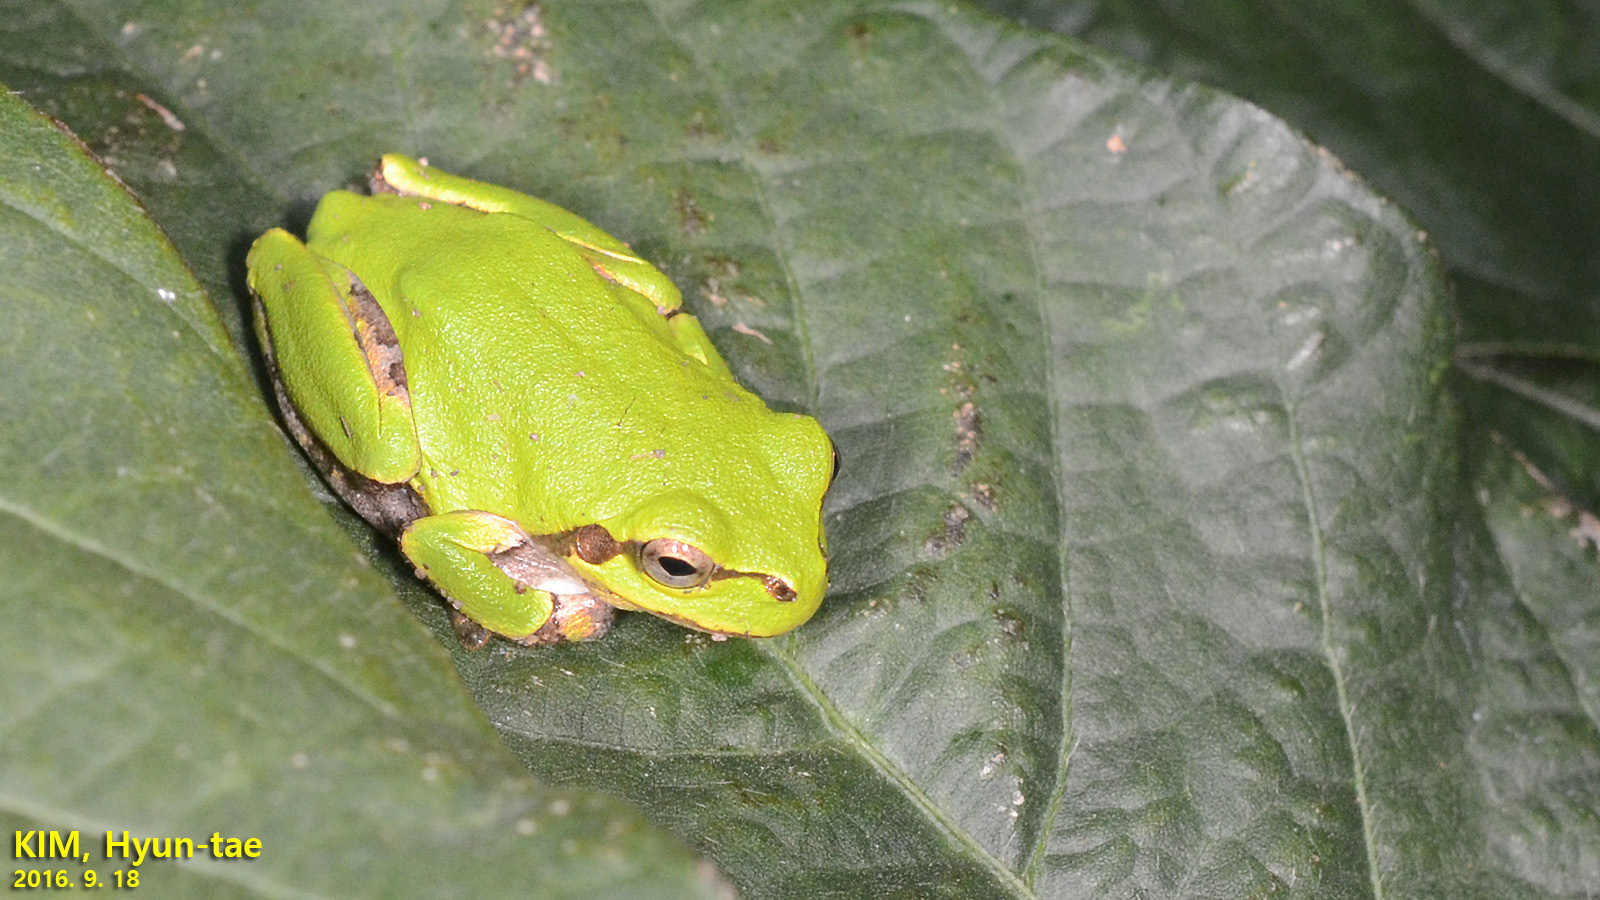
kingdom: Animalia
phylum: Chordata
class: Amphibia
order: Anura
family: Hylidae
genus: Dryophytes
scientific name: Dryophytes japonicus
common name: Japanese treefrog
